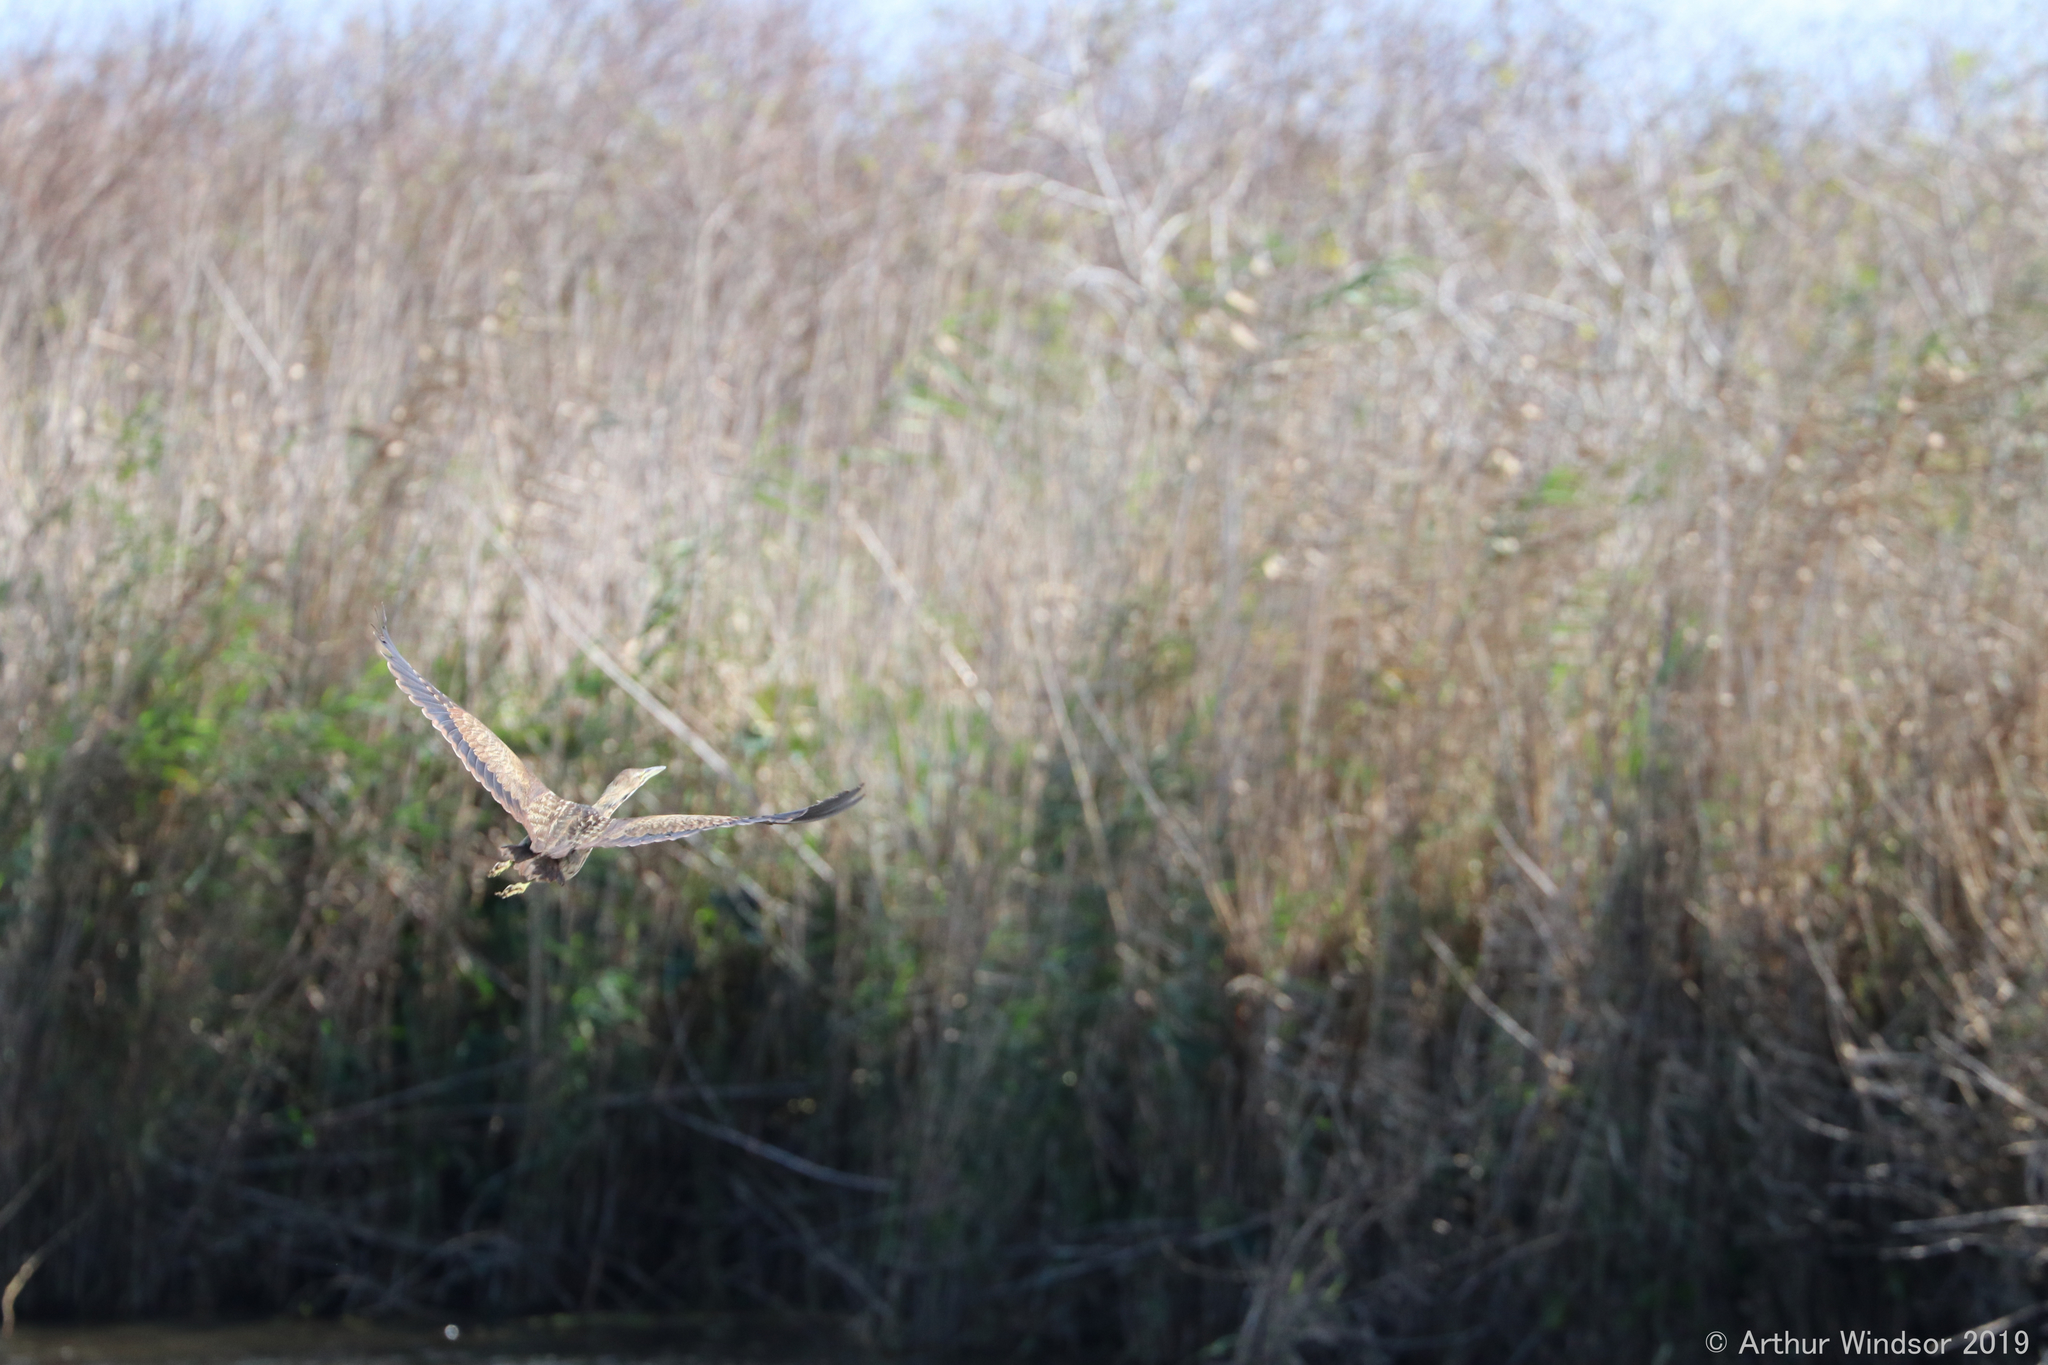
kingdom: Animalia
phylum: Chordata
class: Aves
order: Pelecaniformes
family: Ardeidae
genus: Botaurus
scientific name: Botaurus lentiginosus
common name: American bittern
